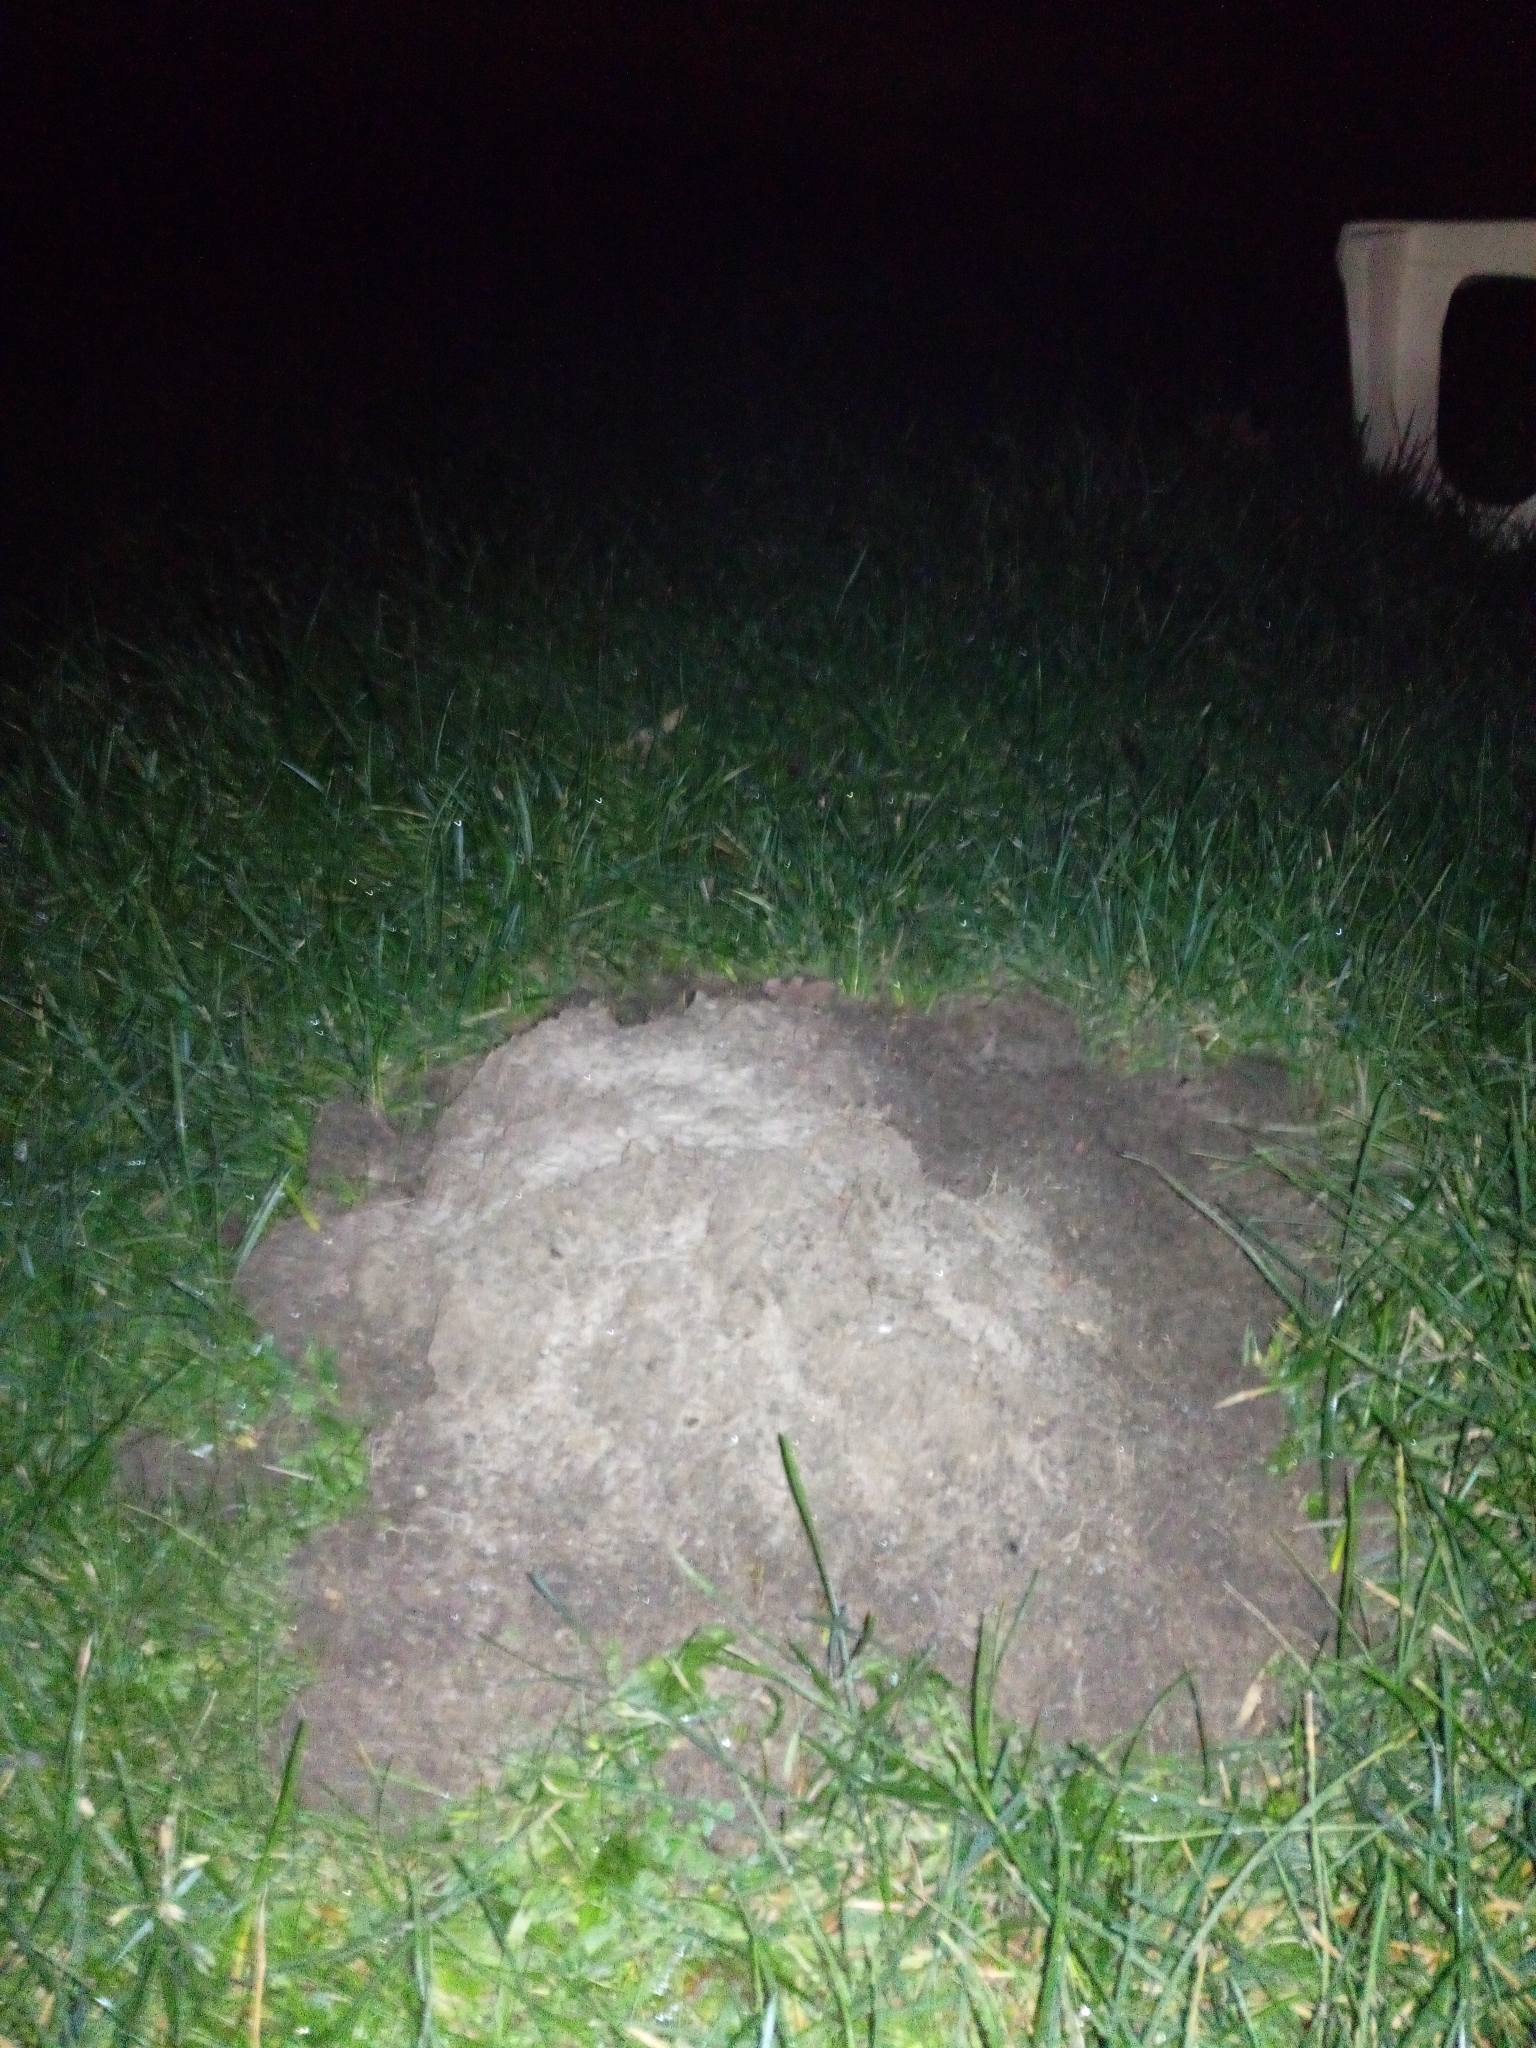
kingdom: Animalia
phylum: Chordata
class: Mammalia
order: Soricomorpha
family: Talpidae
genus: Talpa
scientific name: Talpa europaea
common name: European mole
